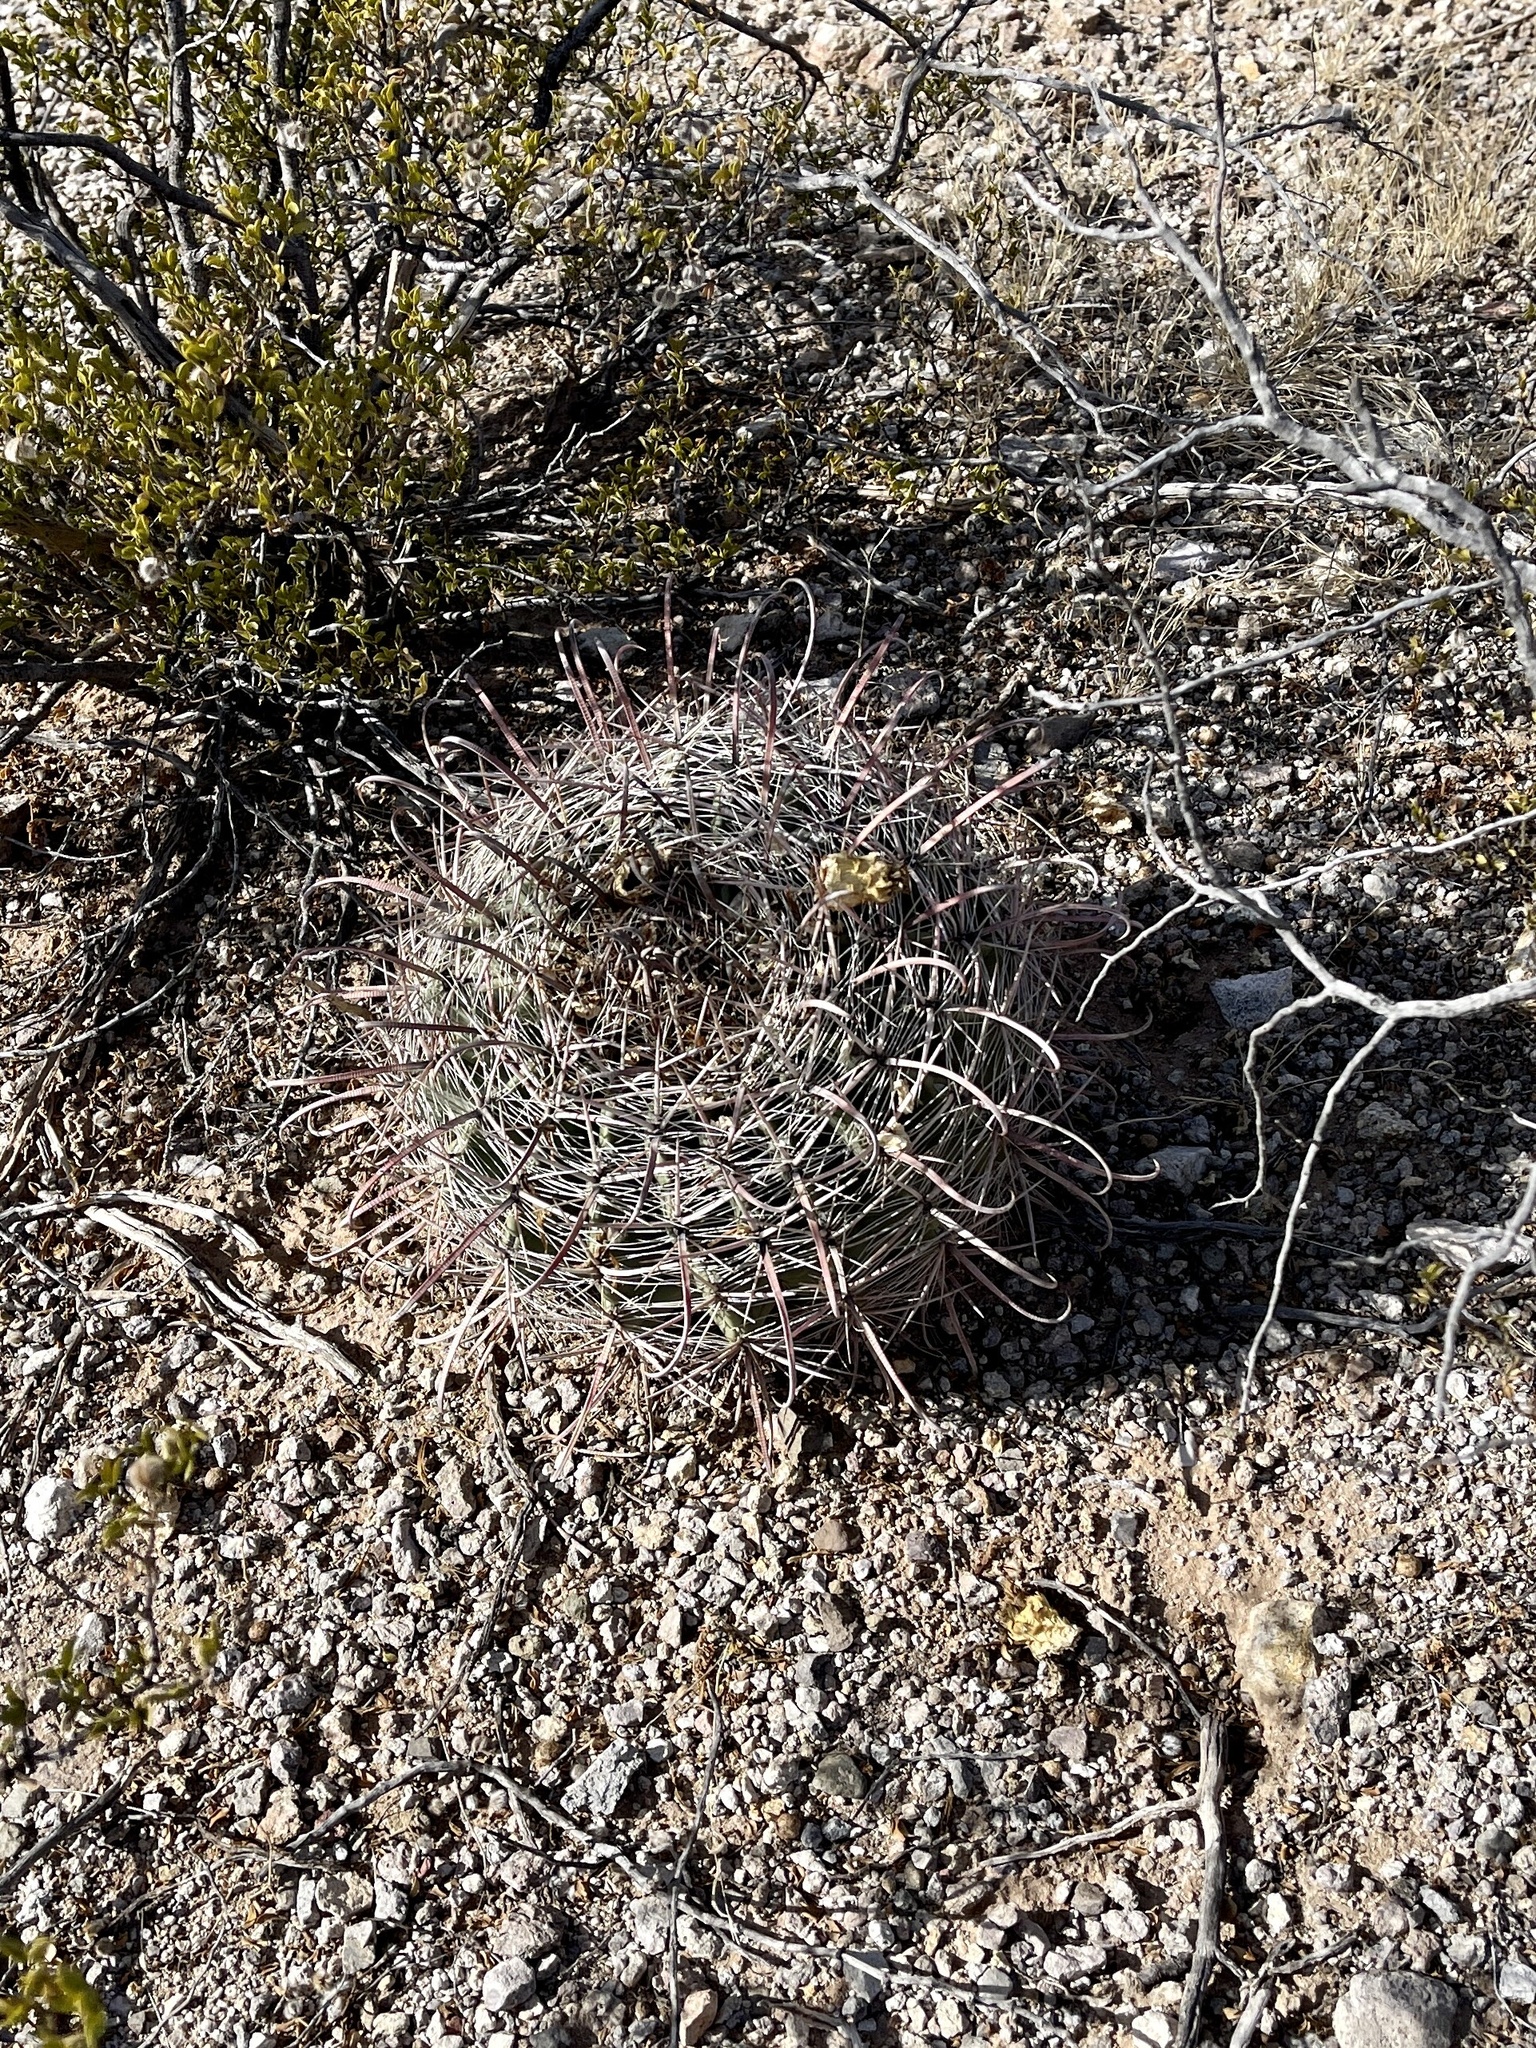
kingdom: Plantae
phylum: Tracheophyta
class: Magnoliopsida
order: Caryophyllales
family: Cactaceae
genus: Ferocactus
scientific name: Ferocactus wislizeni
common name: Candy barrel cactus
